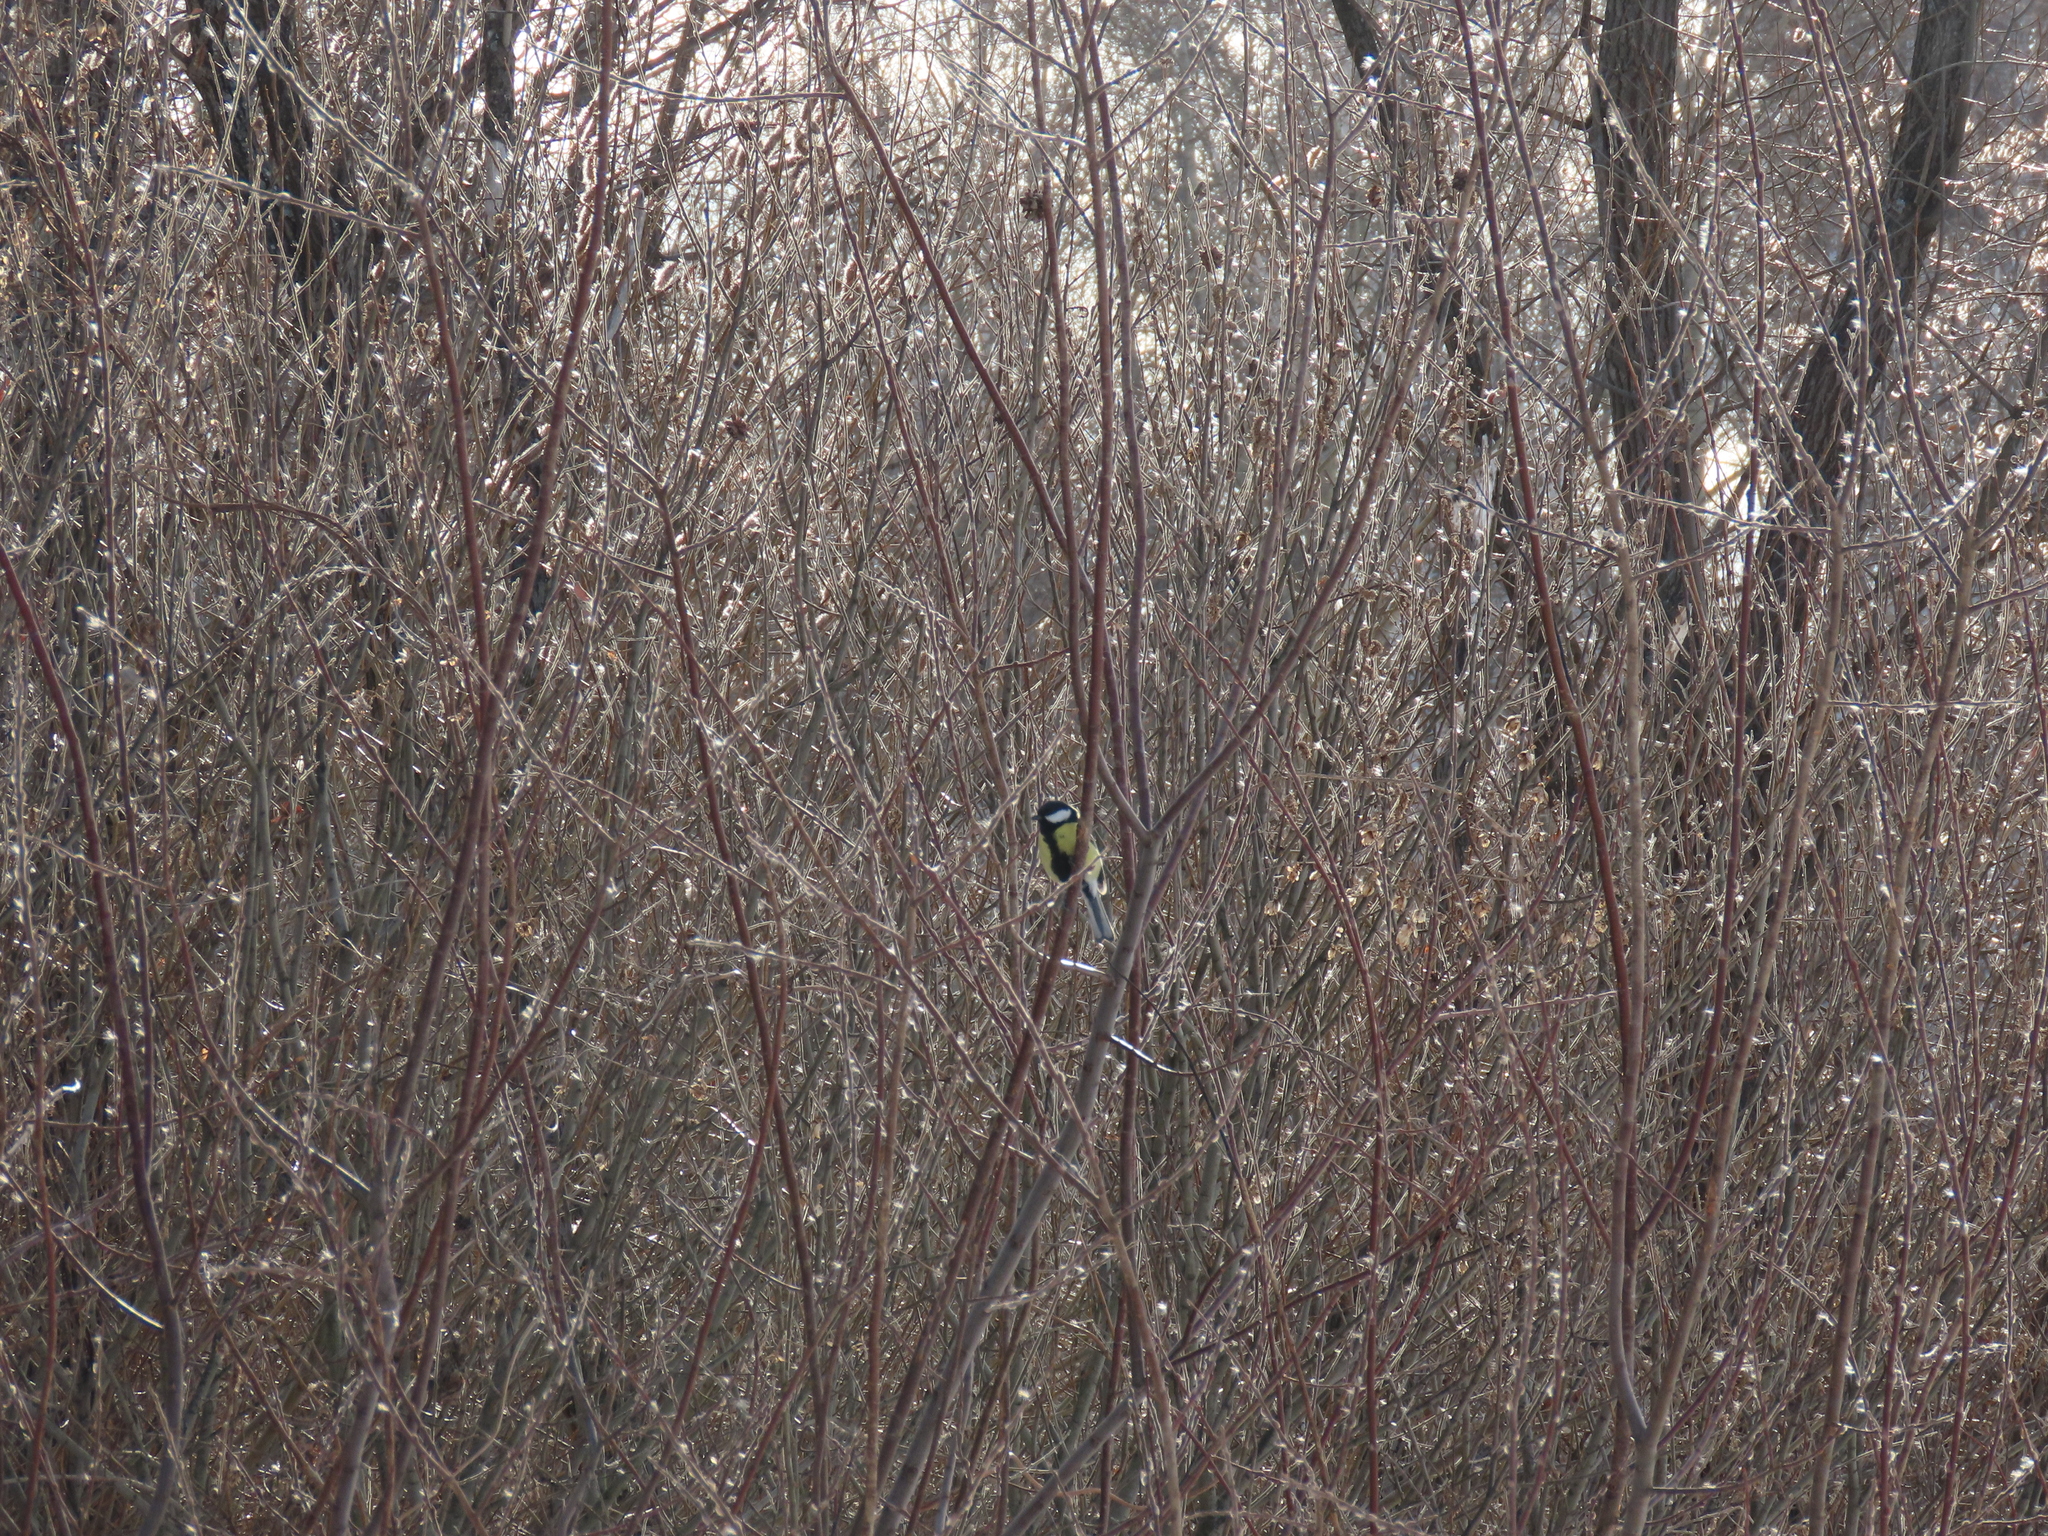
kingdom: Animalia
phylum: Chordata
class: Aves
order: Passeriformes
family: Paridae
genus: Parus
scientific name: Parus major
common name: Great tit
